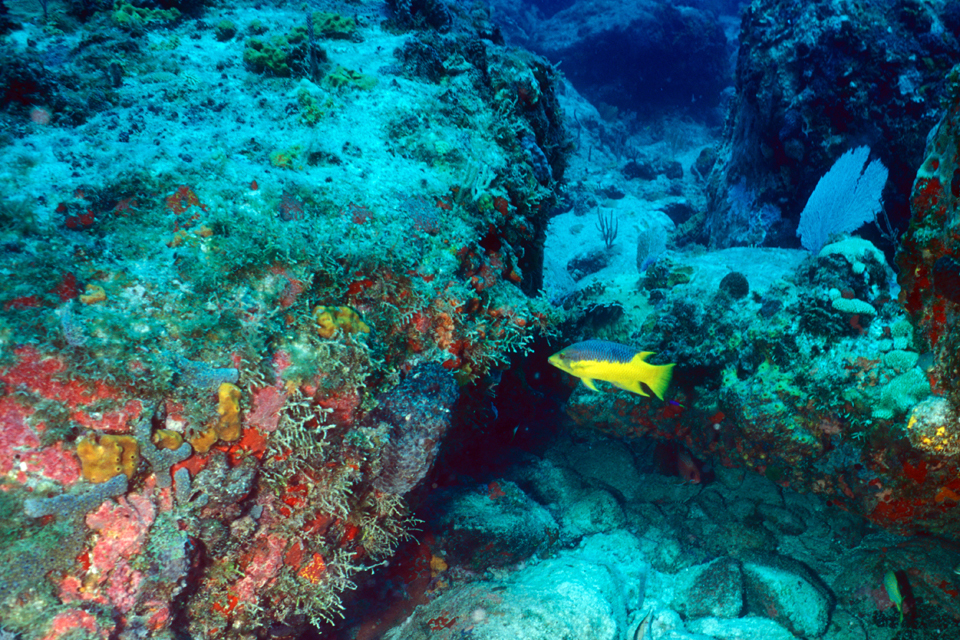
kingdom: Animalia
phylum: Chordata
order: Perciformes
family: Labridae
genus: Bodianus
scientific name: Bodianus rufus
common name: Spanish hogfish
